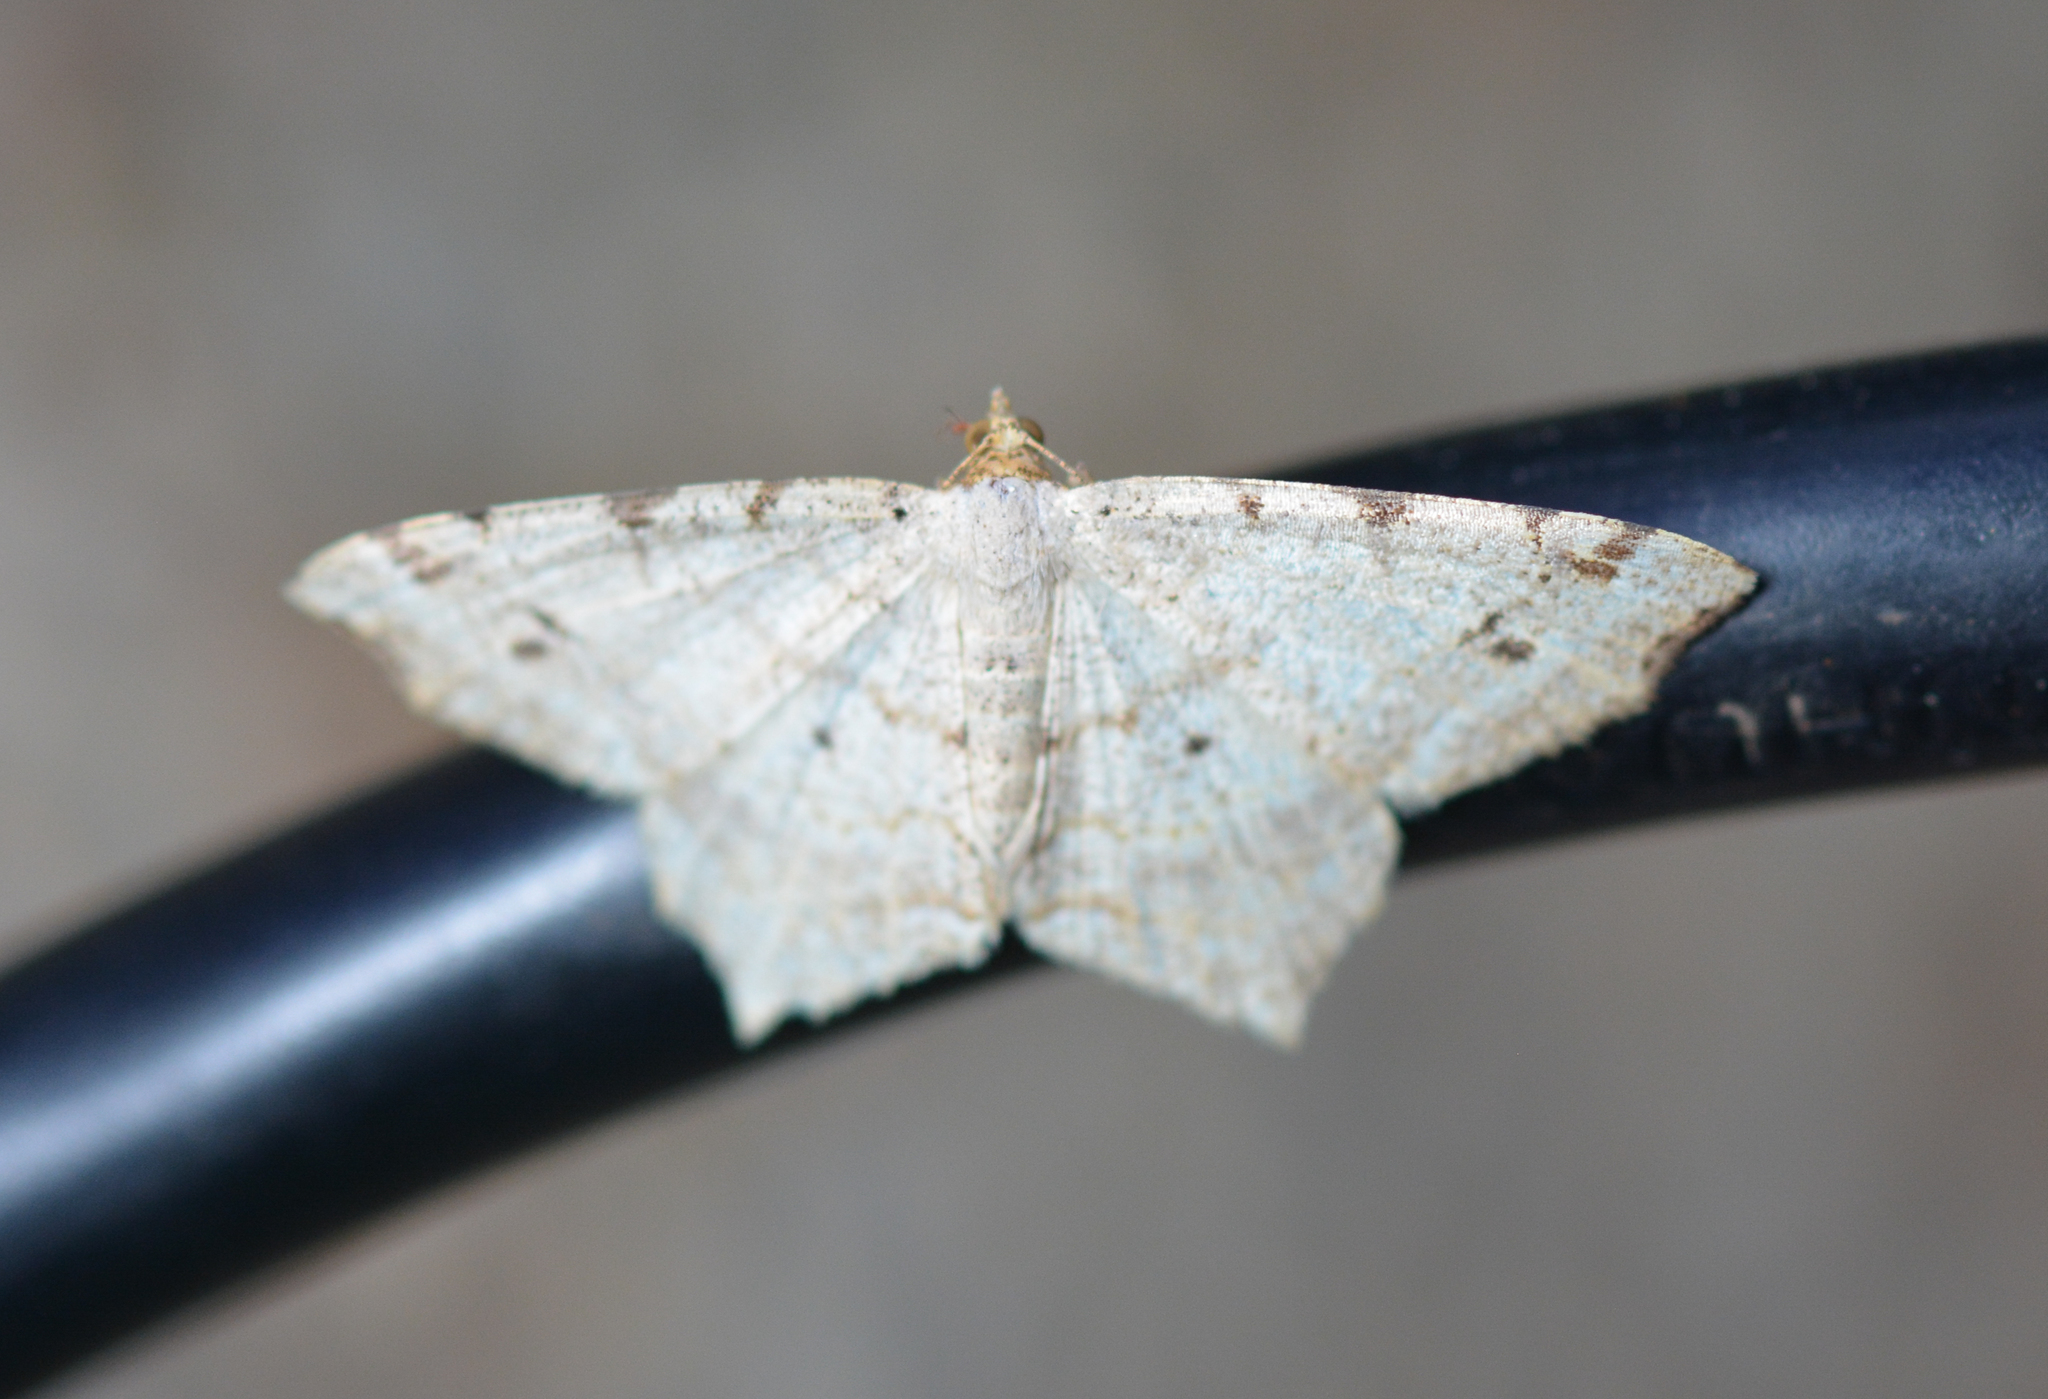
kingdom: Animalia
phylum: Arthropoda
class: Insecta
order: Lepidoptera
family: Geometridae
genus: Macaria
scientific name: Macaria bisignata
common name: Red-headed inchworm
